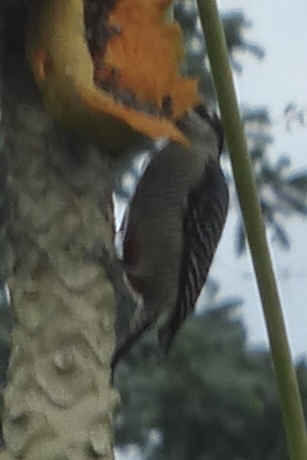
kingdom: Animalia
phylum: Chordata
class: Aves
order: Piciformes
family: Picidae
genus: Melanerpes
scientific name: Melanerpes pucherani
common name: Black-cheeked woodpecker
